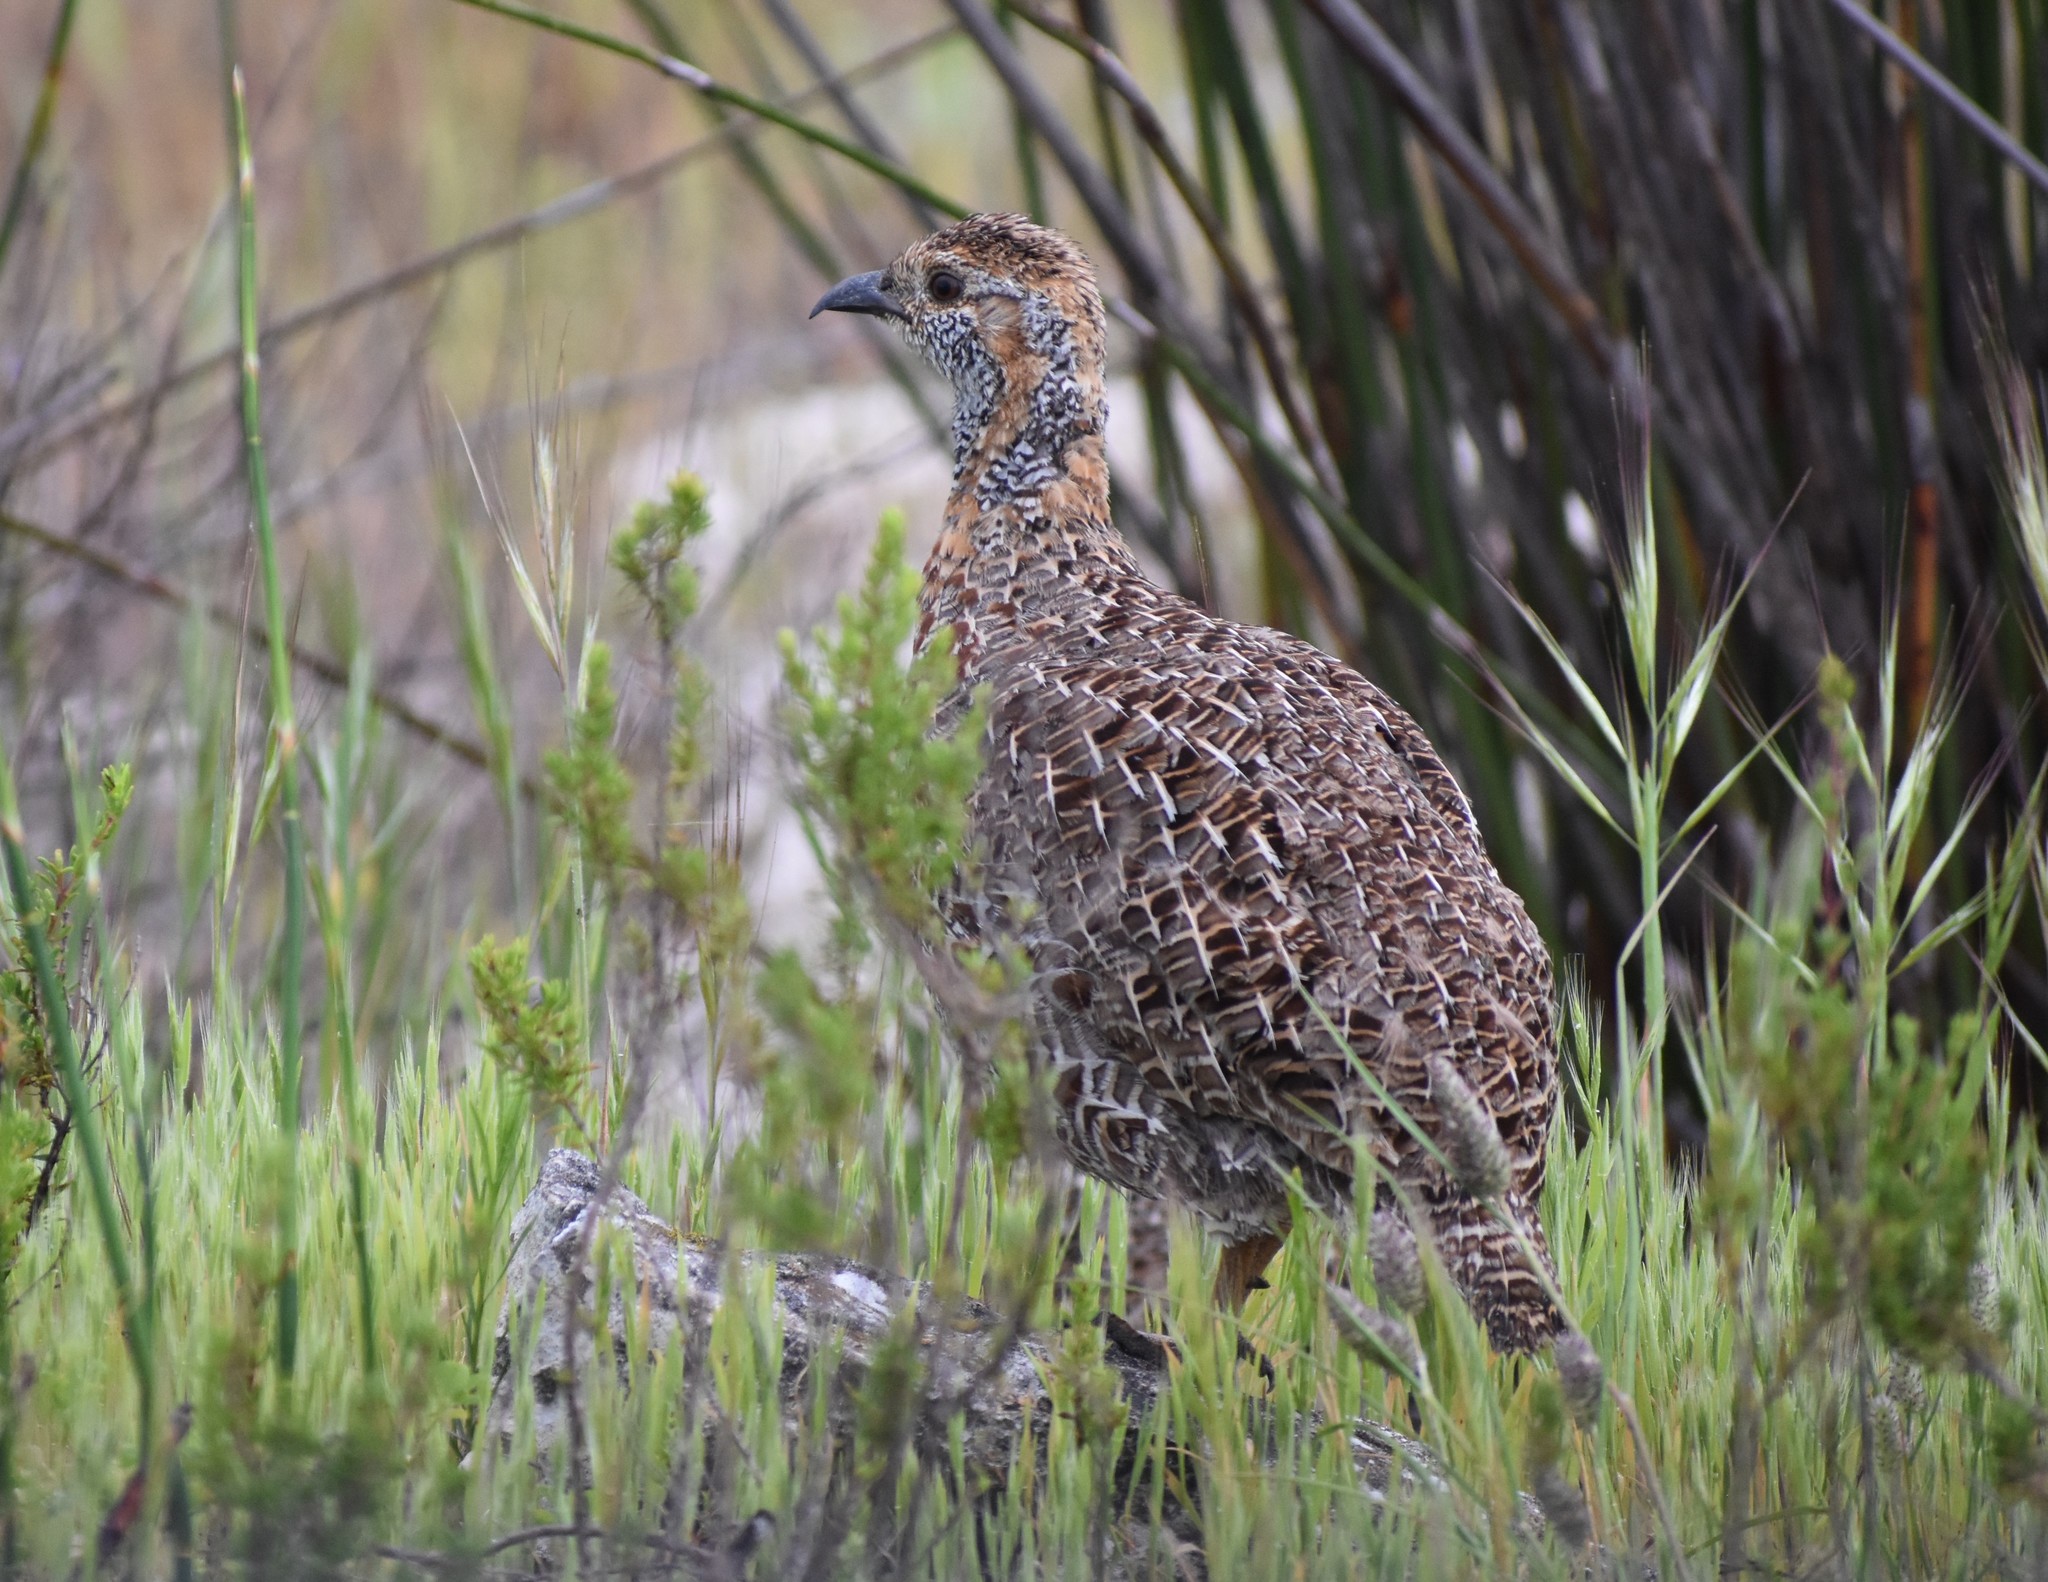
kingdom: Animalia
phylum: Chordata
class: Aves
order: Galliformes
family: Phasianidae
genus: Scleroptila
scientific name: Scleroptila afra
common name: Grey-winged francolin
